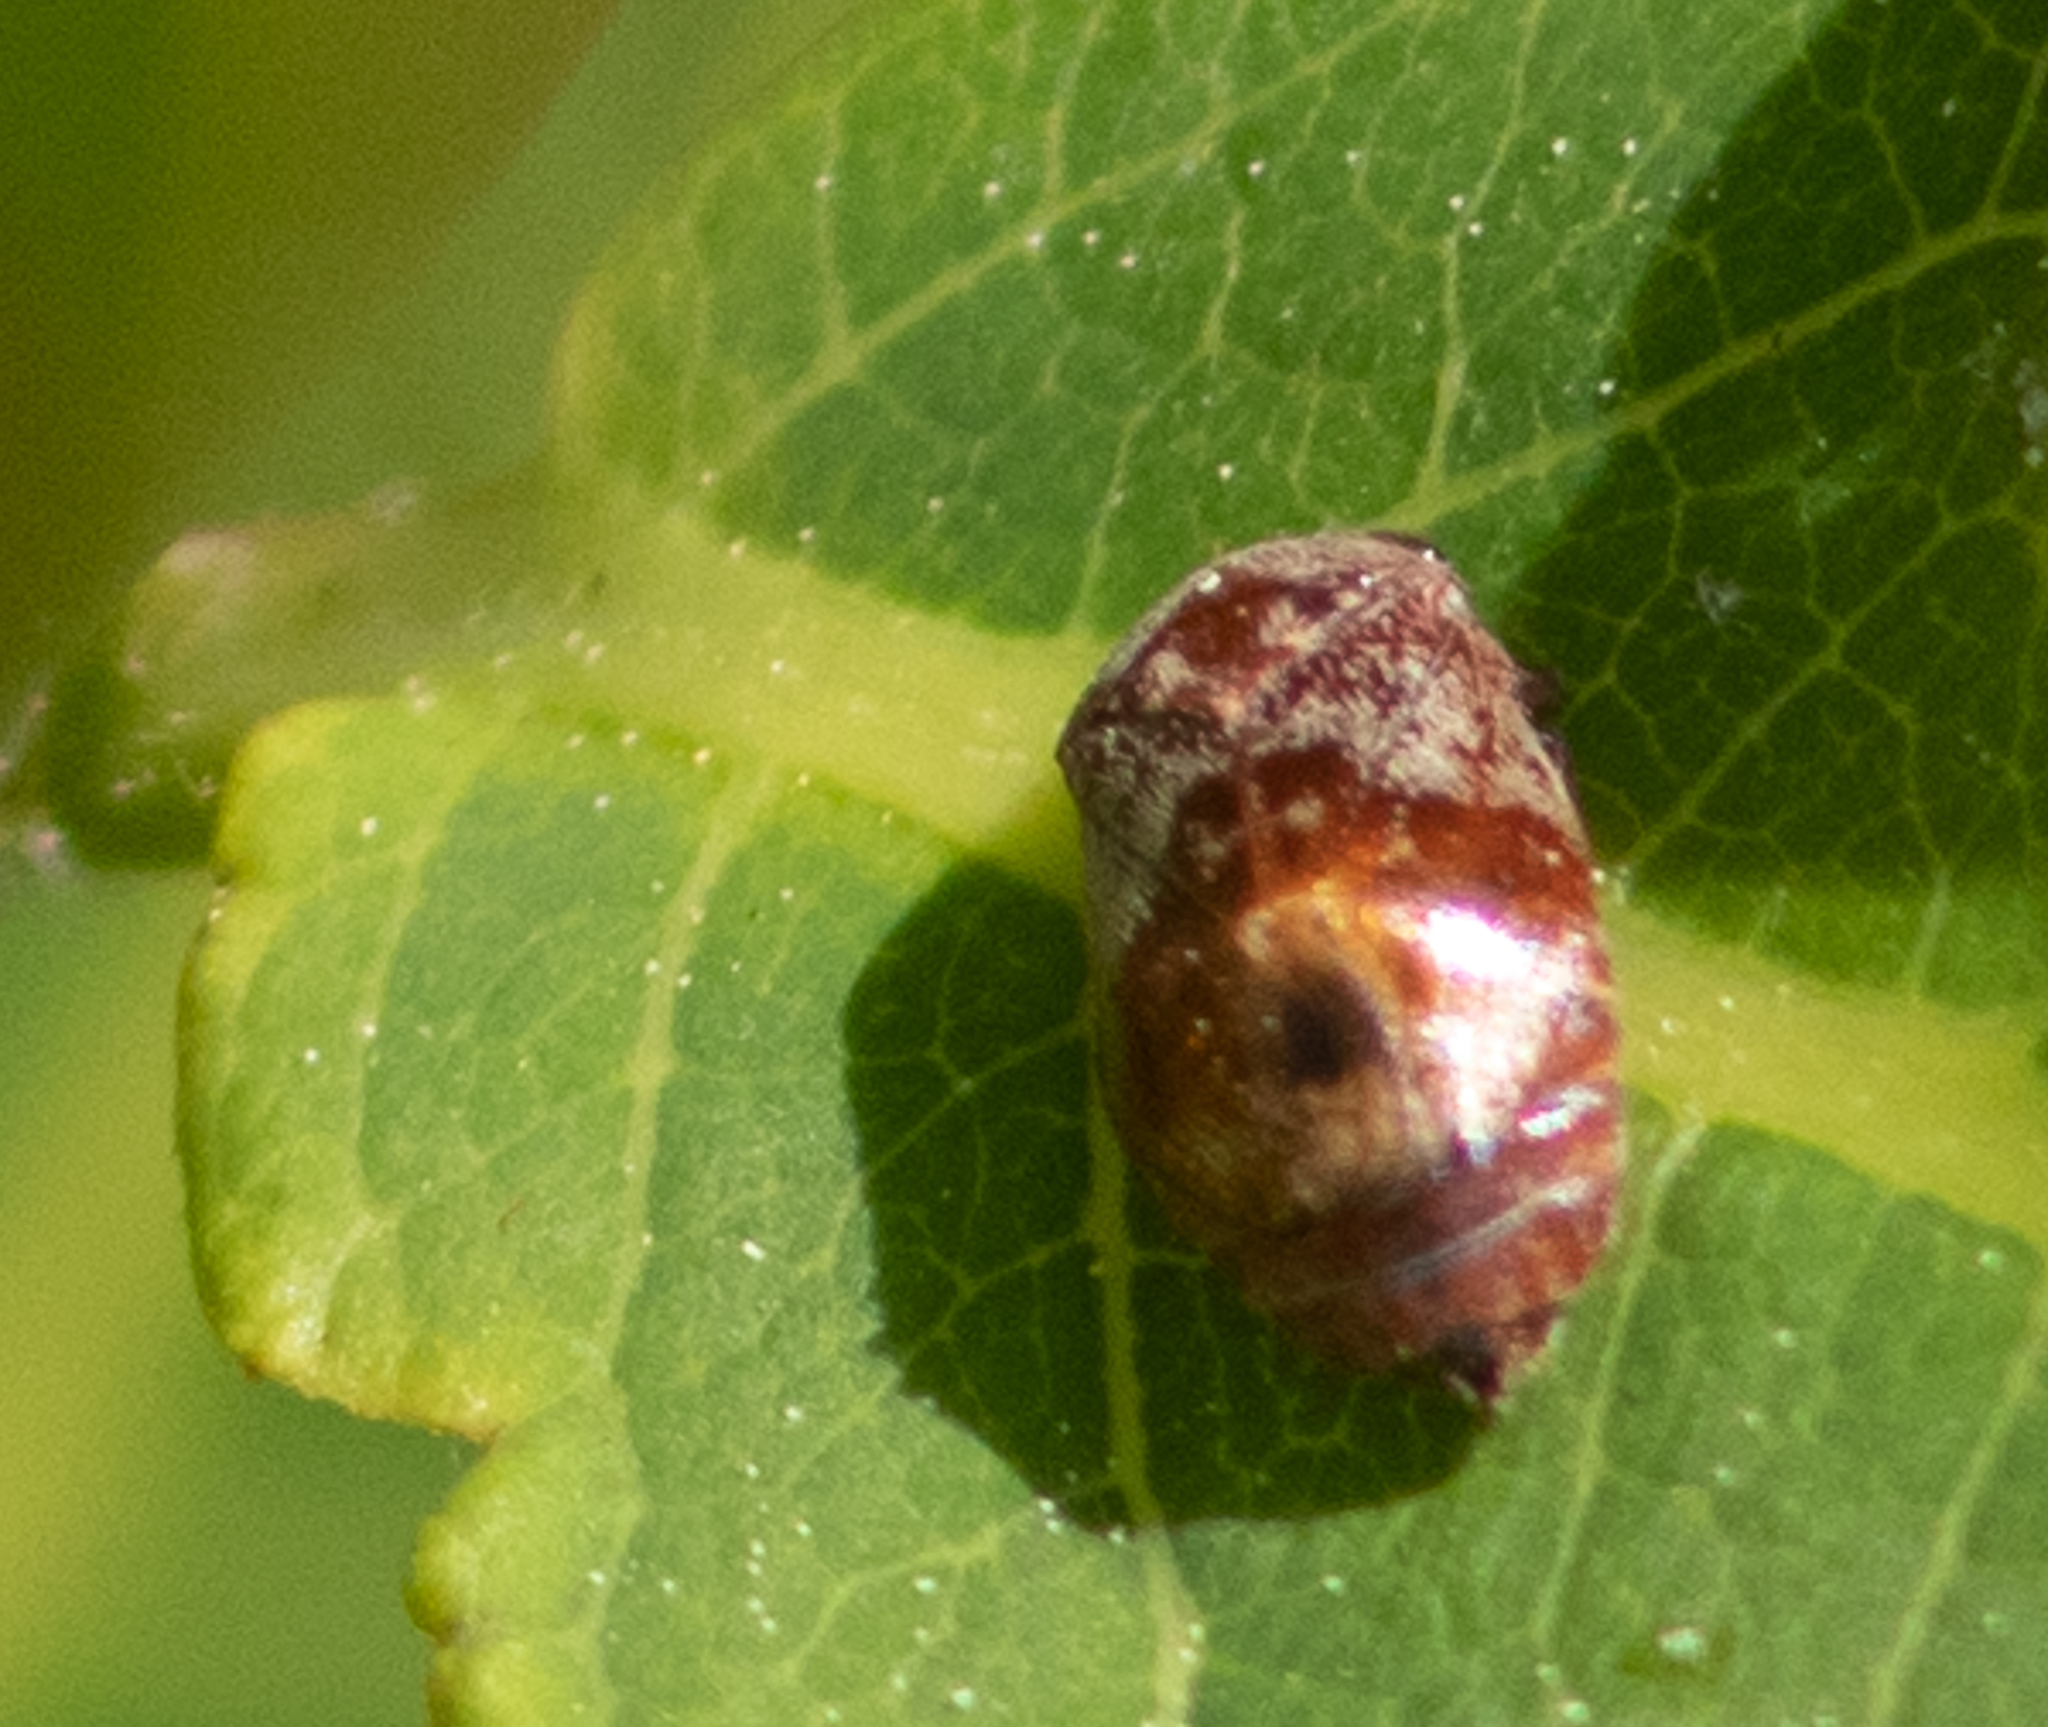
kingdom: Animalia
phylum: Arthropoda
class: Insecta
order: Hemiptera
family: Cicadellidae
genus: Penthimia
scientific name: Penthimia americana
